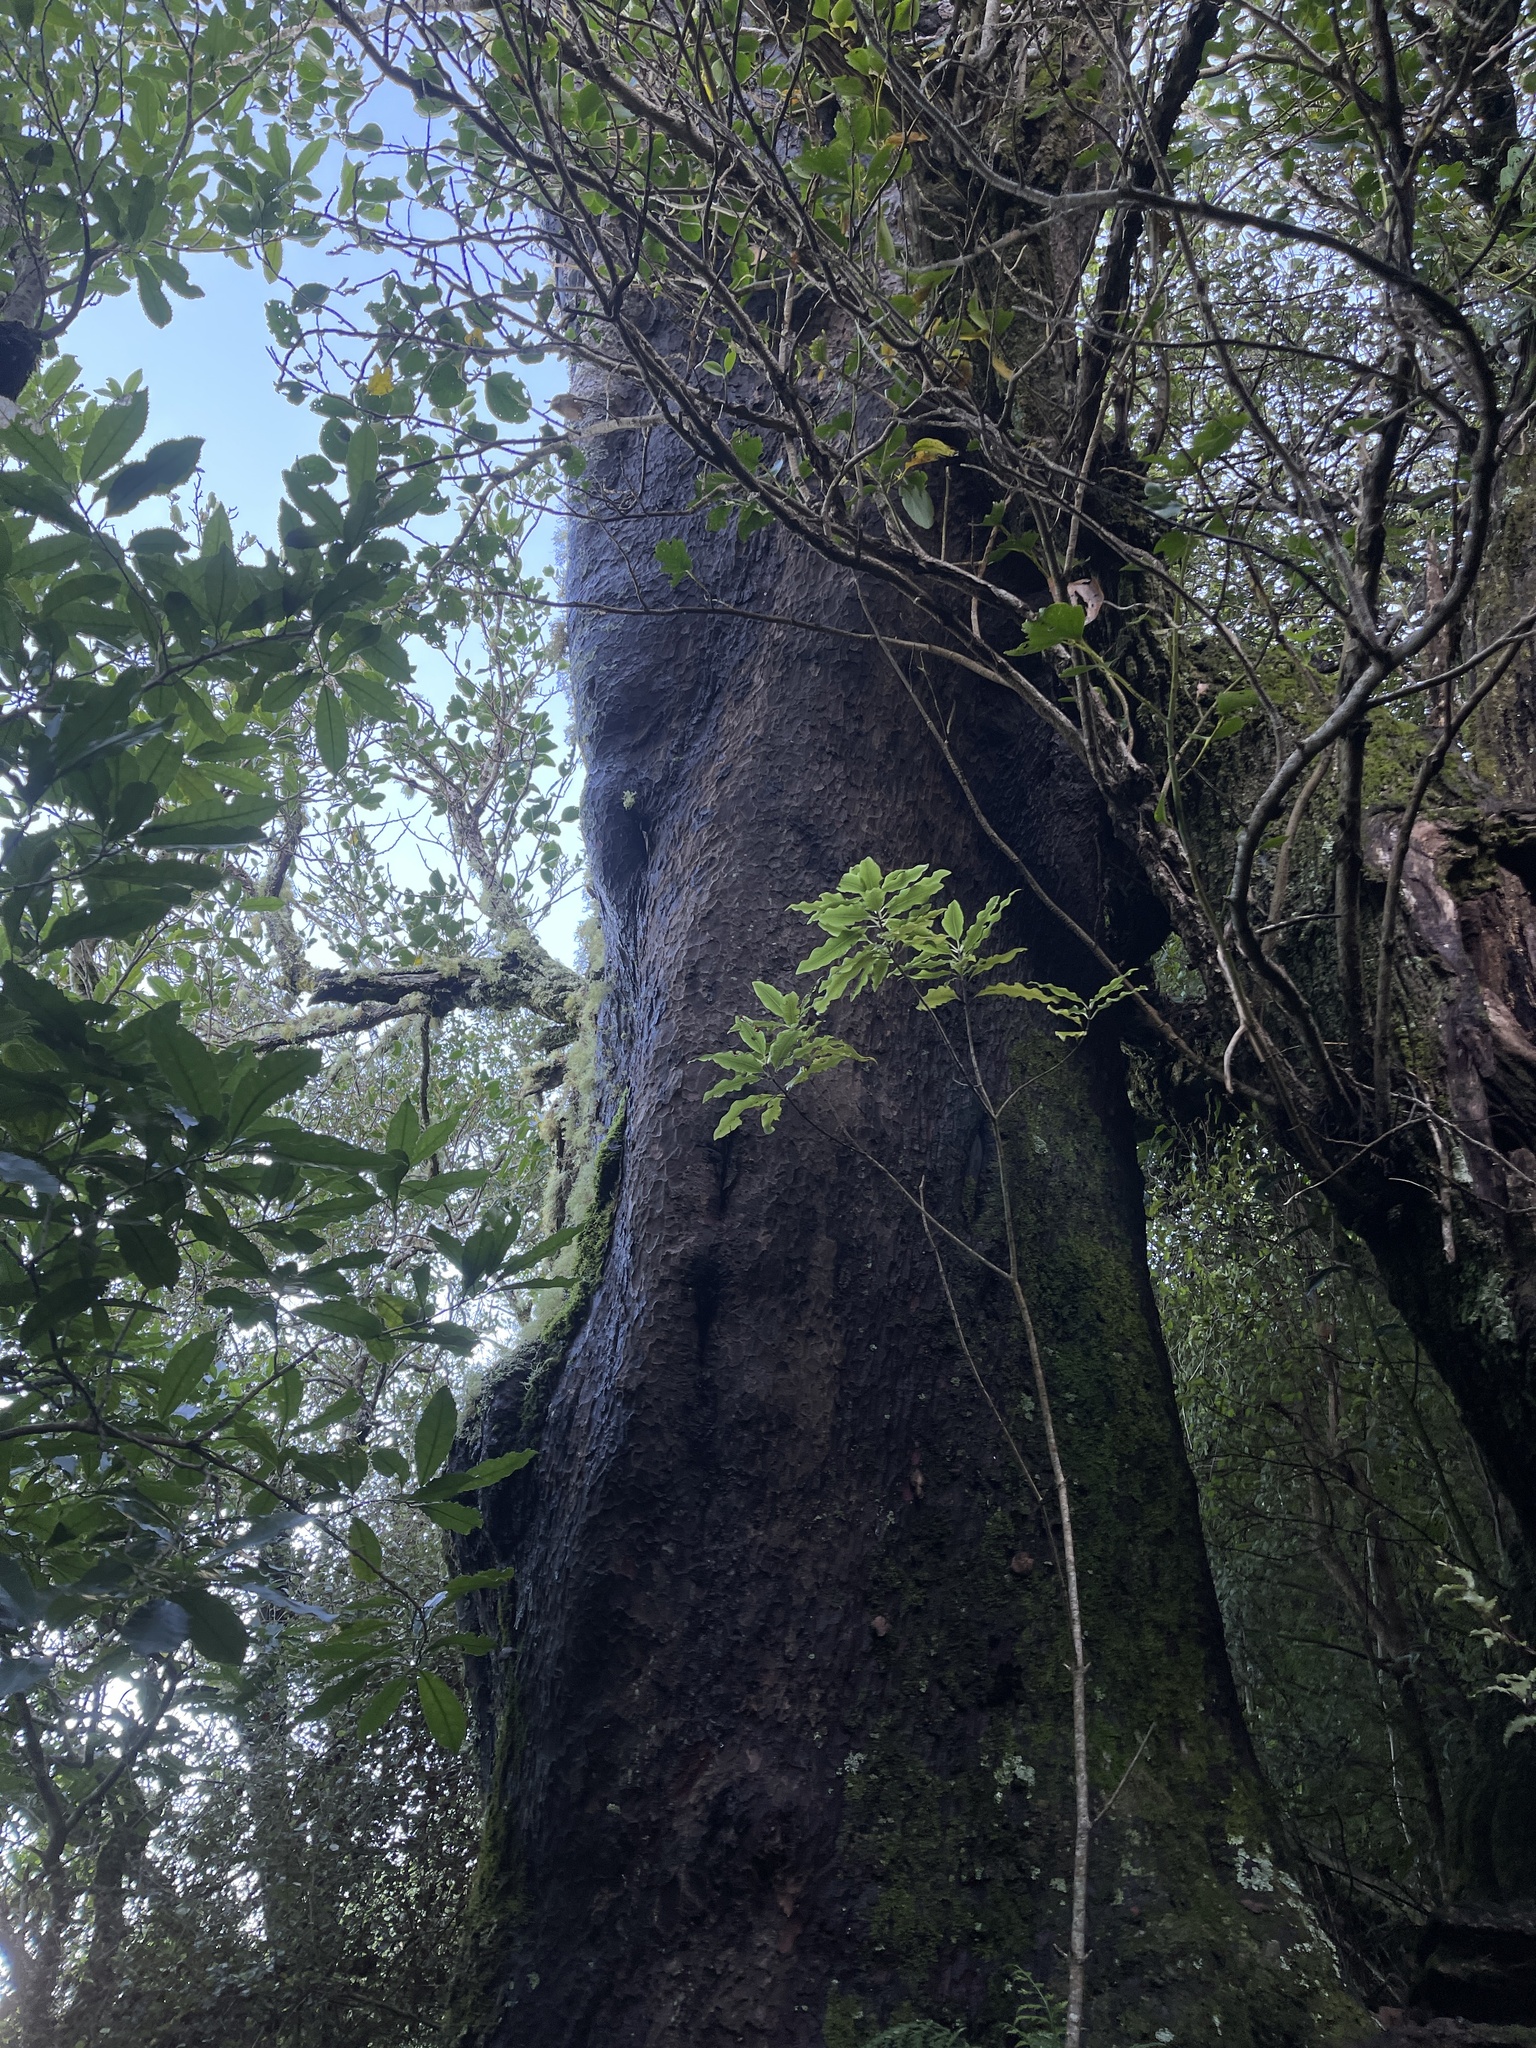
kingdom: Plantae
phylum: Tracheophyta
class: Pinopsida
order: Pinales
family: Podocarpaceae
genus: Prumnopitys
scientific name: Prumnopitys taxifolia
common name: Matai
